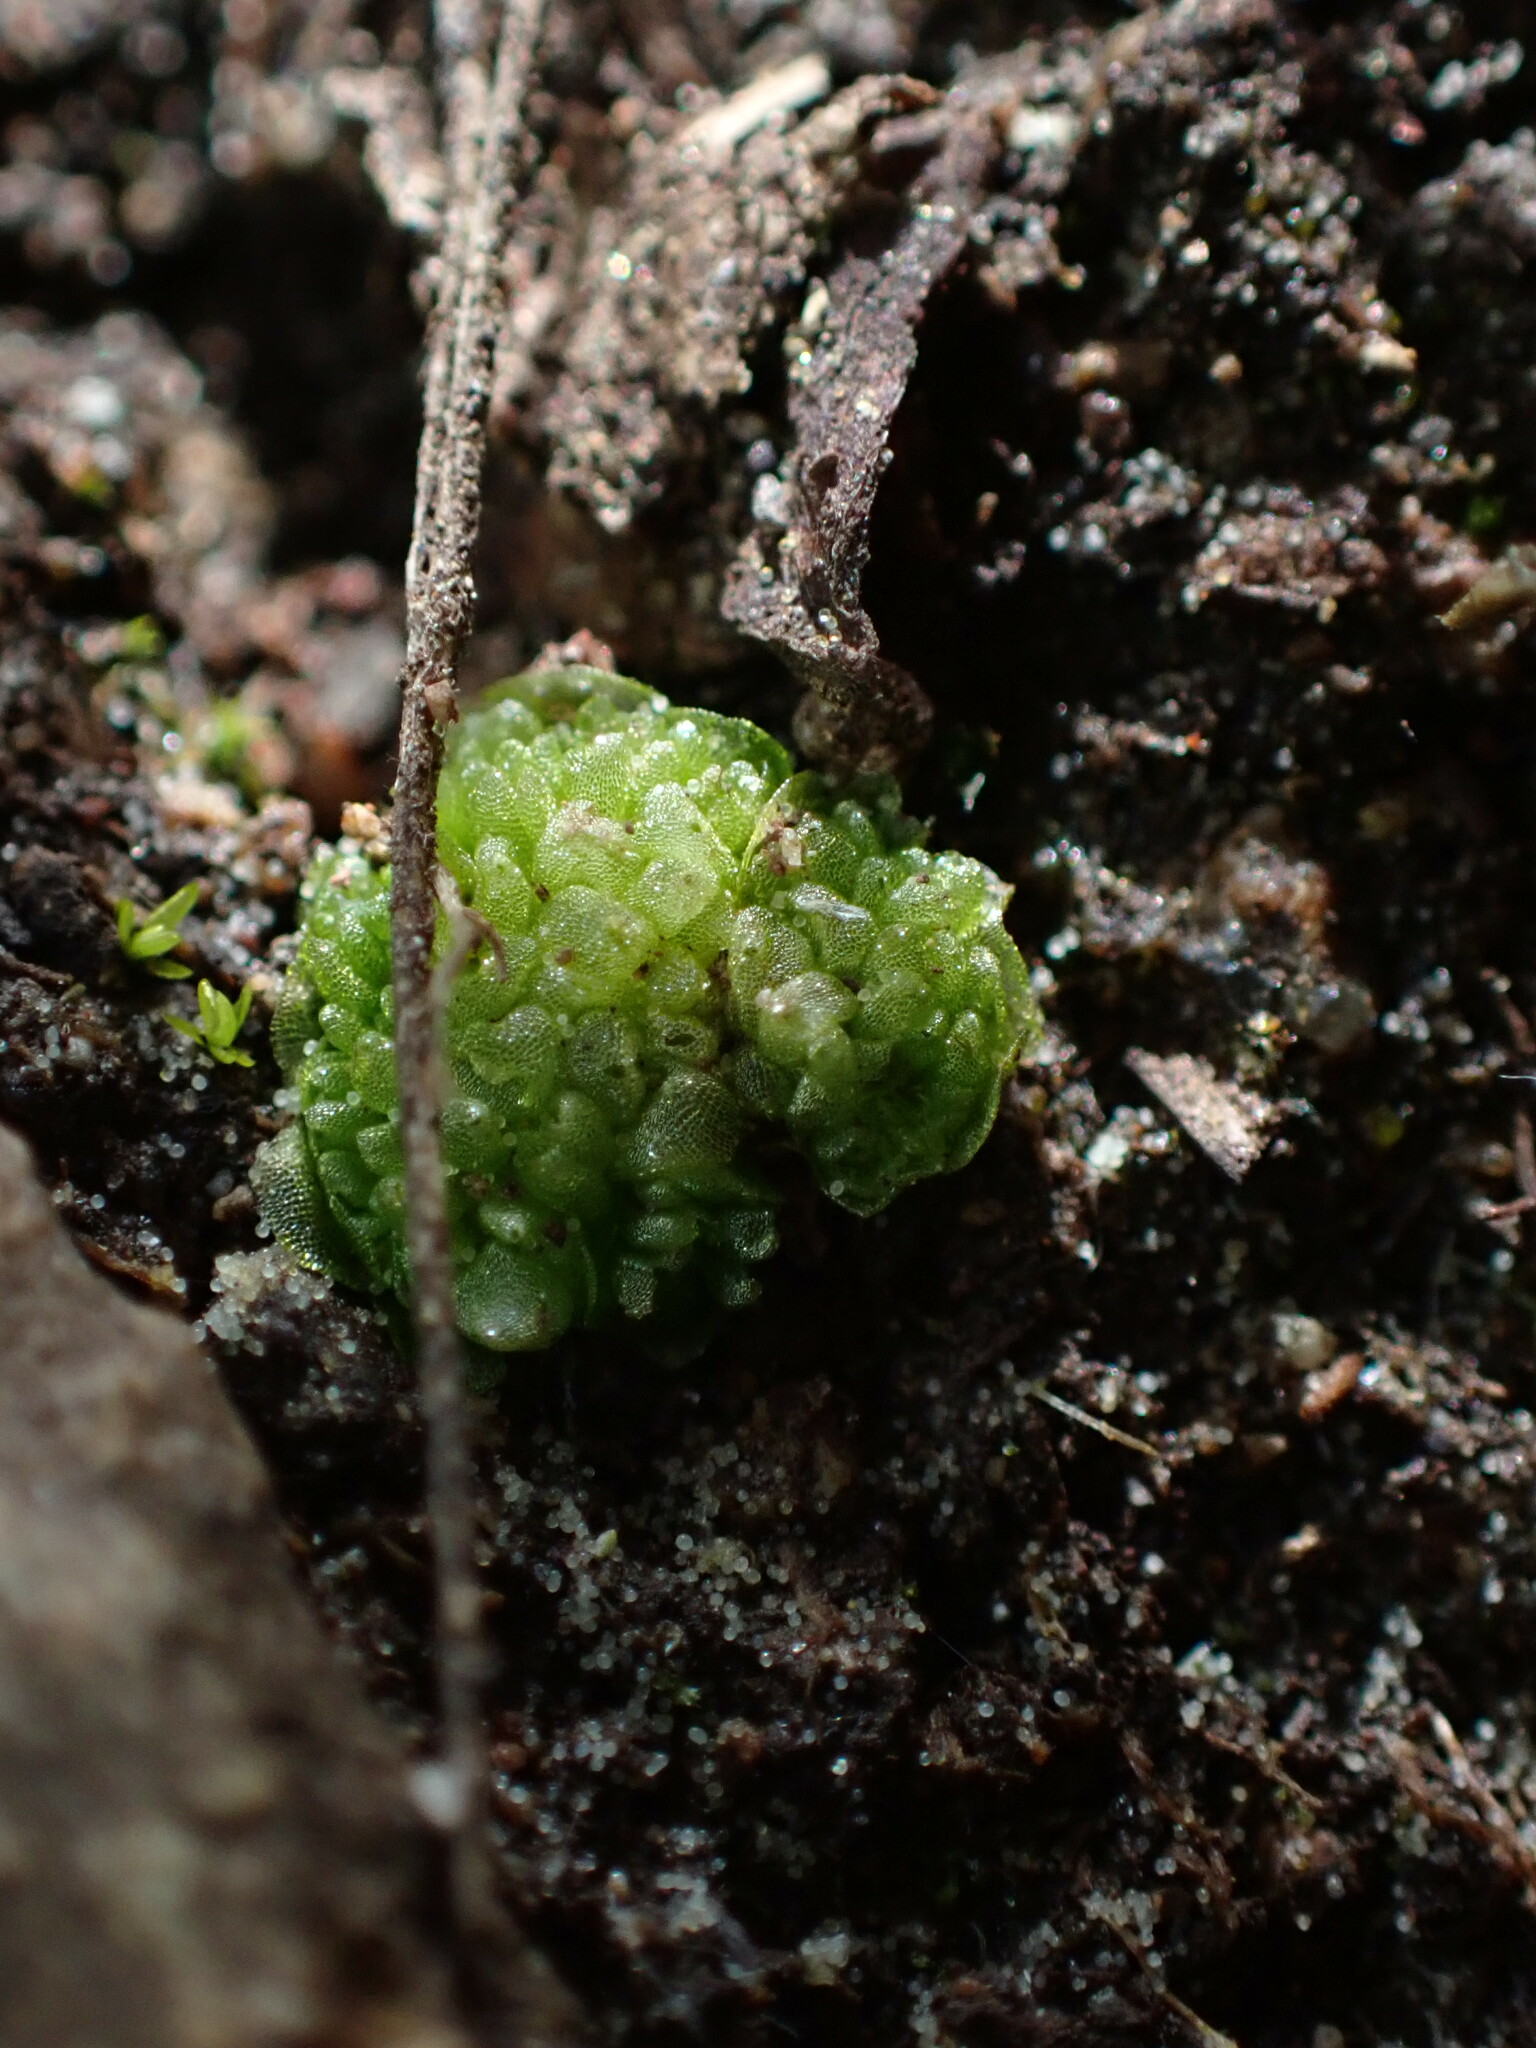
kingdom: Plantae
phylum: Marchantiophyta
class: Marchantiopsida
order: Sphaerocarpales
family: Sphaerocarpaceae
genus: Sphaerocarpos
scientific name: Sphaerocarpos texanus
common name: Texas balloonwort
